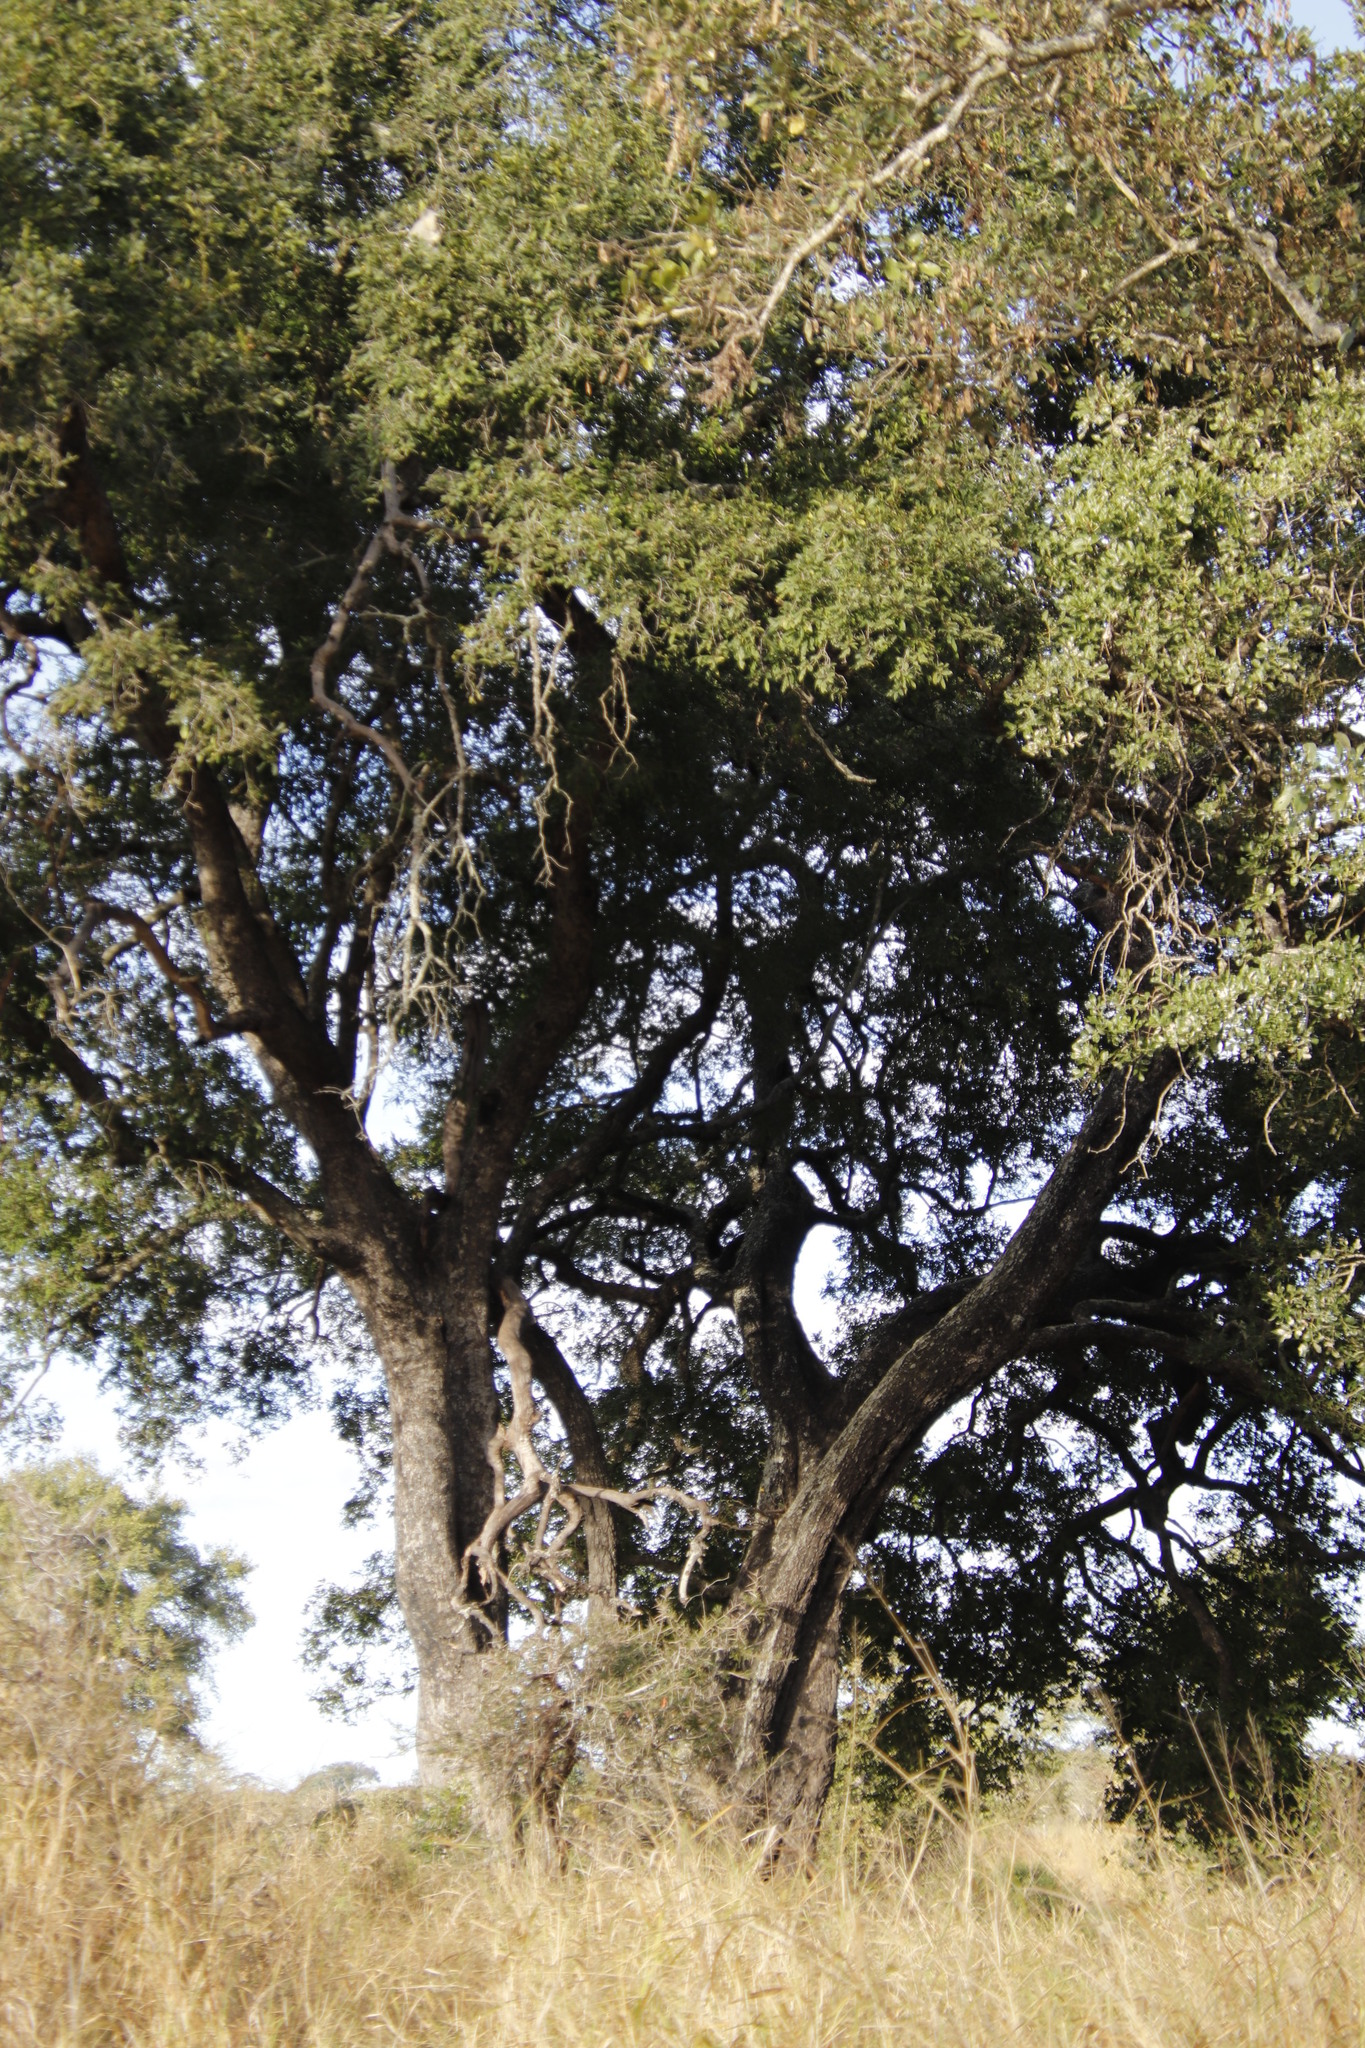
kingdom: Plantae
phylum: Tracheophyta
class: Magnoliopsida
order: Ericales
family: Ebenaceae
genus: Diospyros
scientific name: Diospyros mespiliformis
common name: Ebony diospyros
